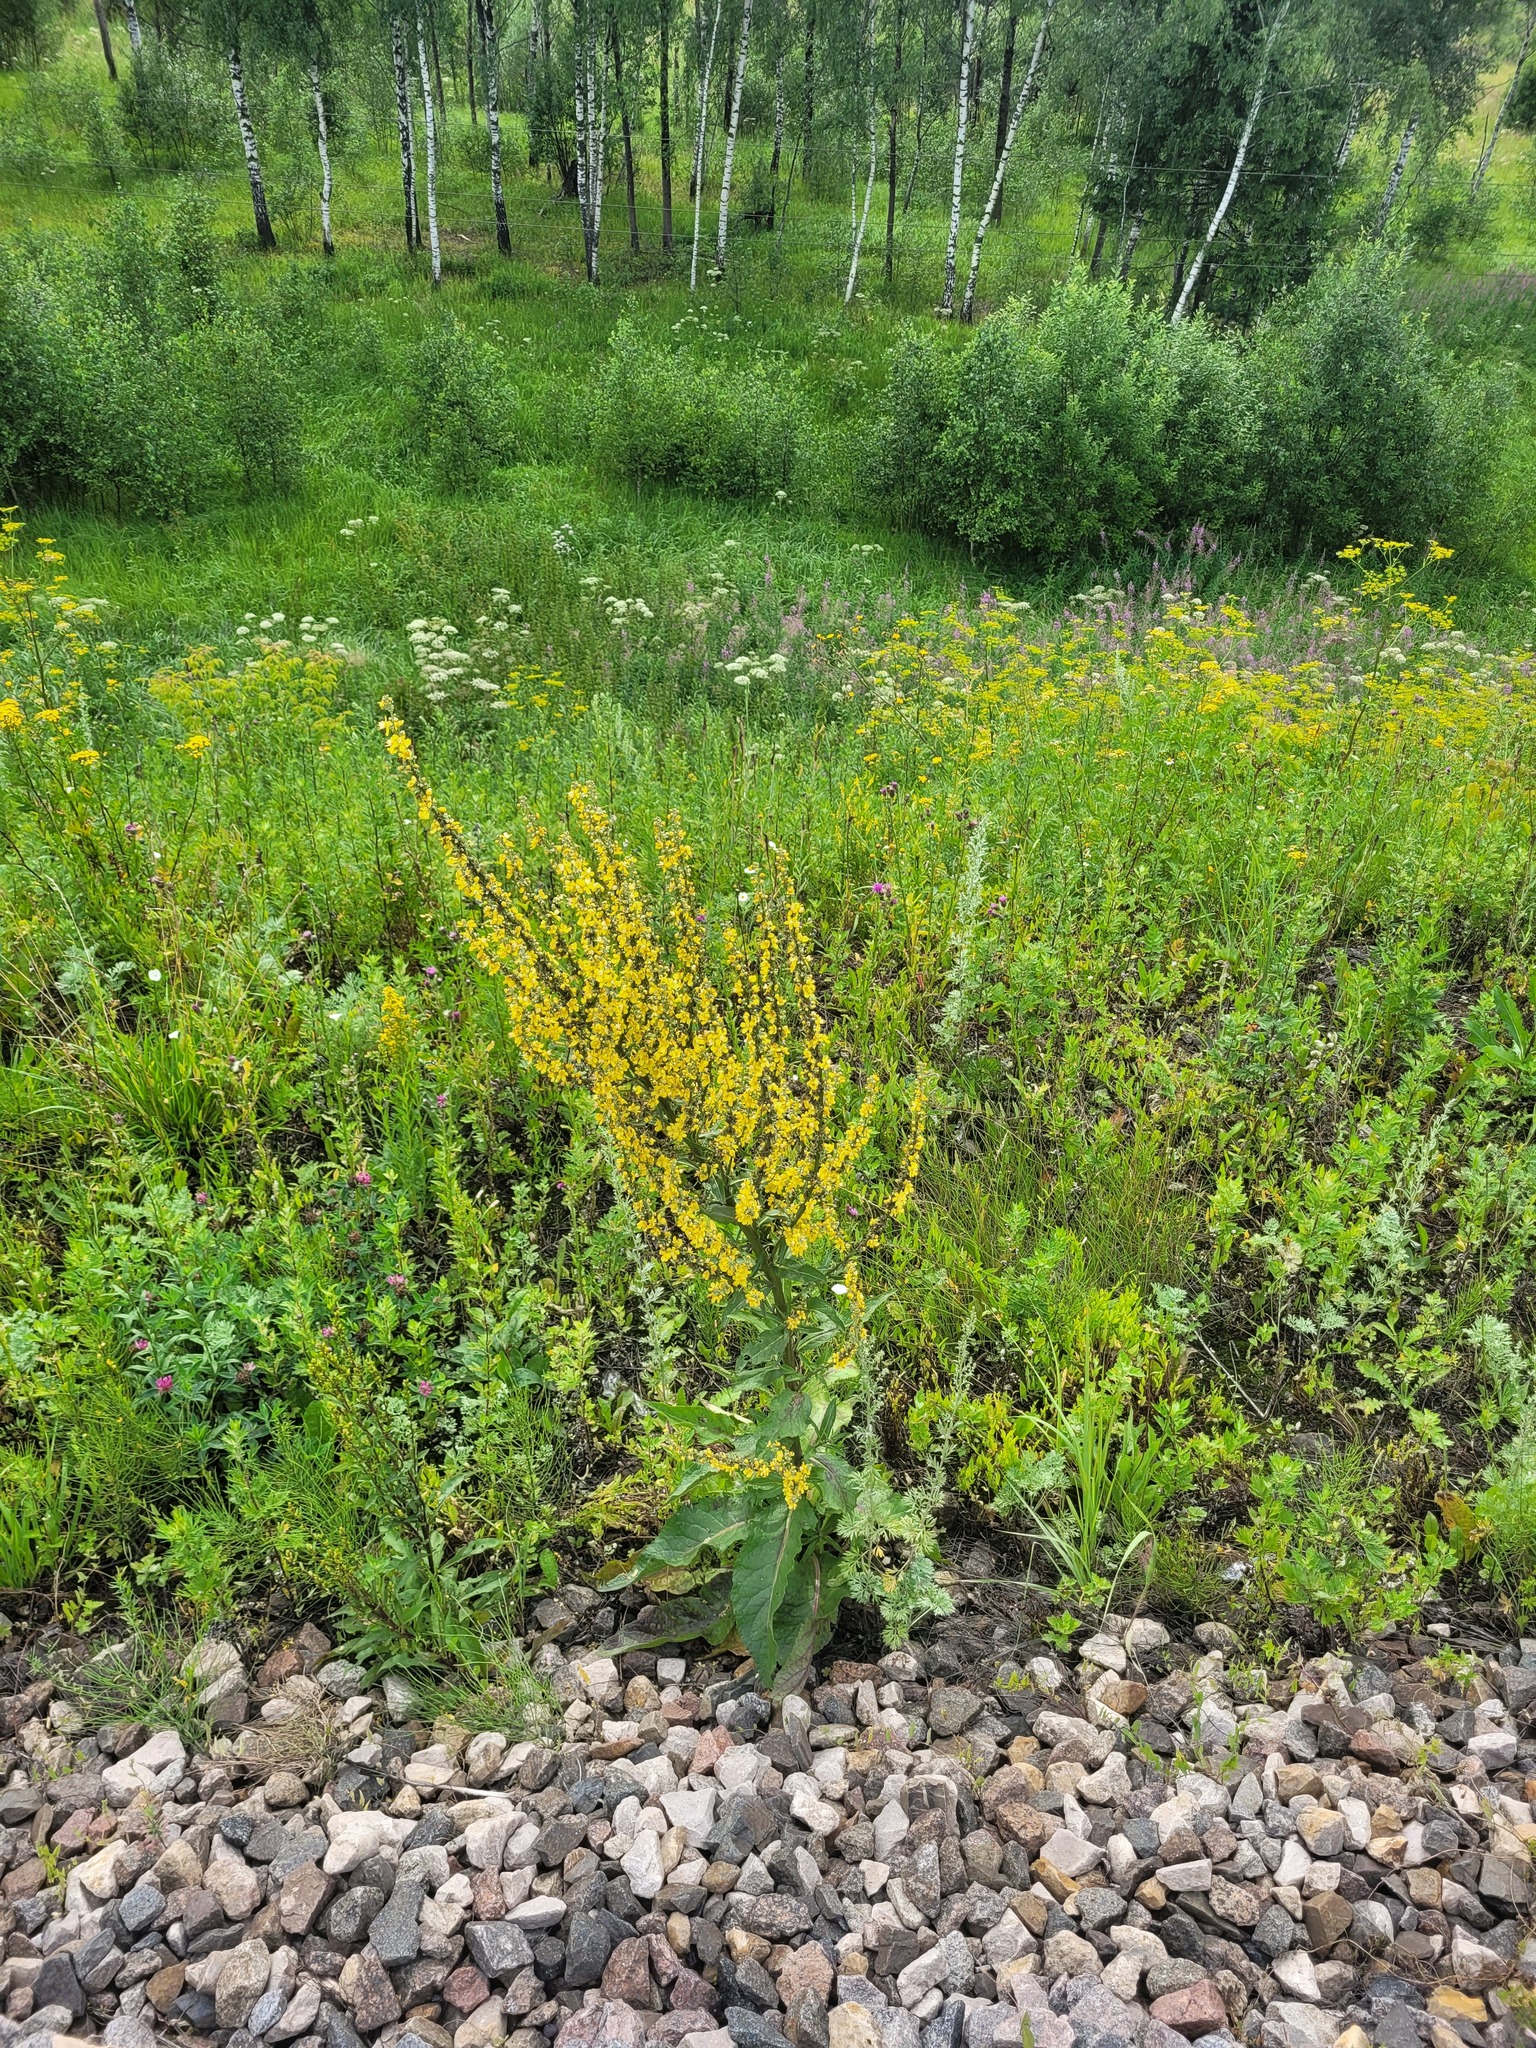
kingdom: Plantae
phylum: Tracheophyta
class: Magnoliopsida
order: Lamiales
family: Scrophulariaceae
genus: Verbascum
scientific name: Verbascum lychnitis
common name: White mullein
